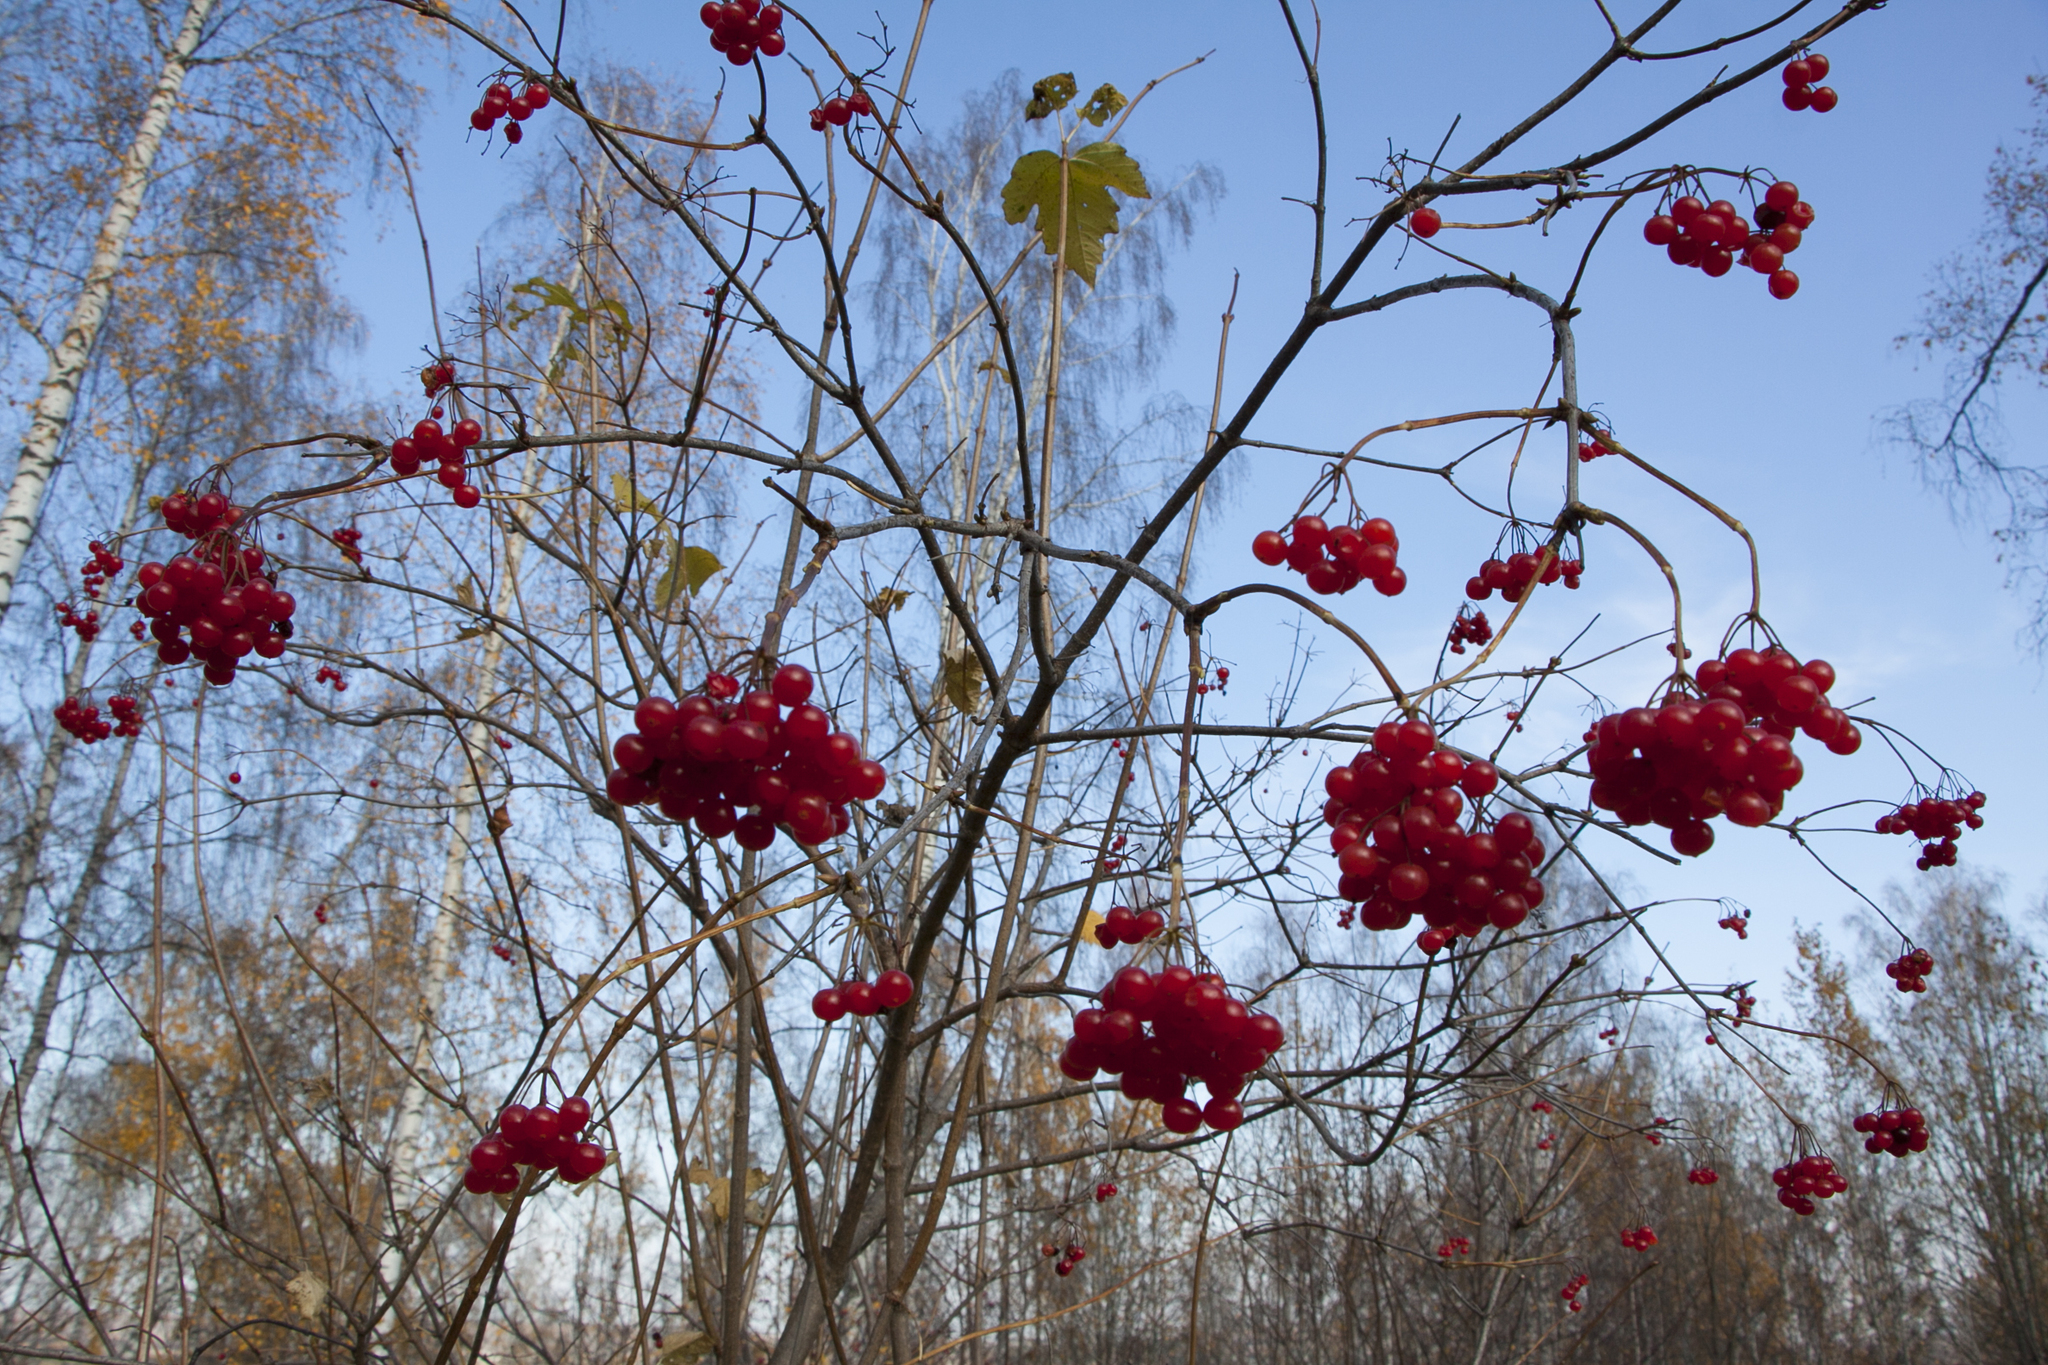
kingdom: Plantae
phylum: Tracheophyta
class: Magnoliopsida
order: Dipsacales
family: Viburnaceae
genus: Viburnum
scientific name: Viburnum opulus
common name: Guelder-rose
